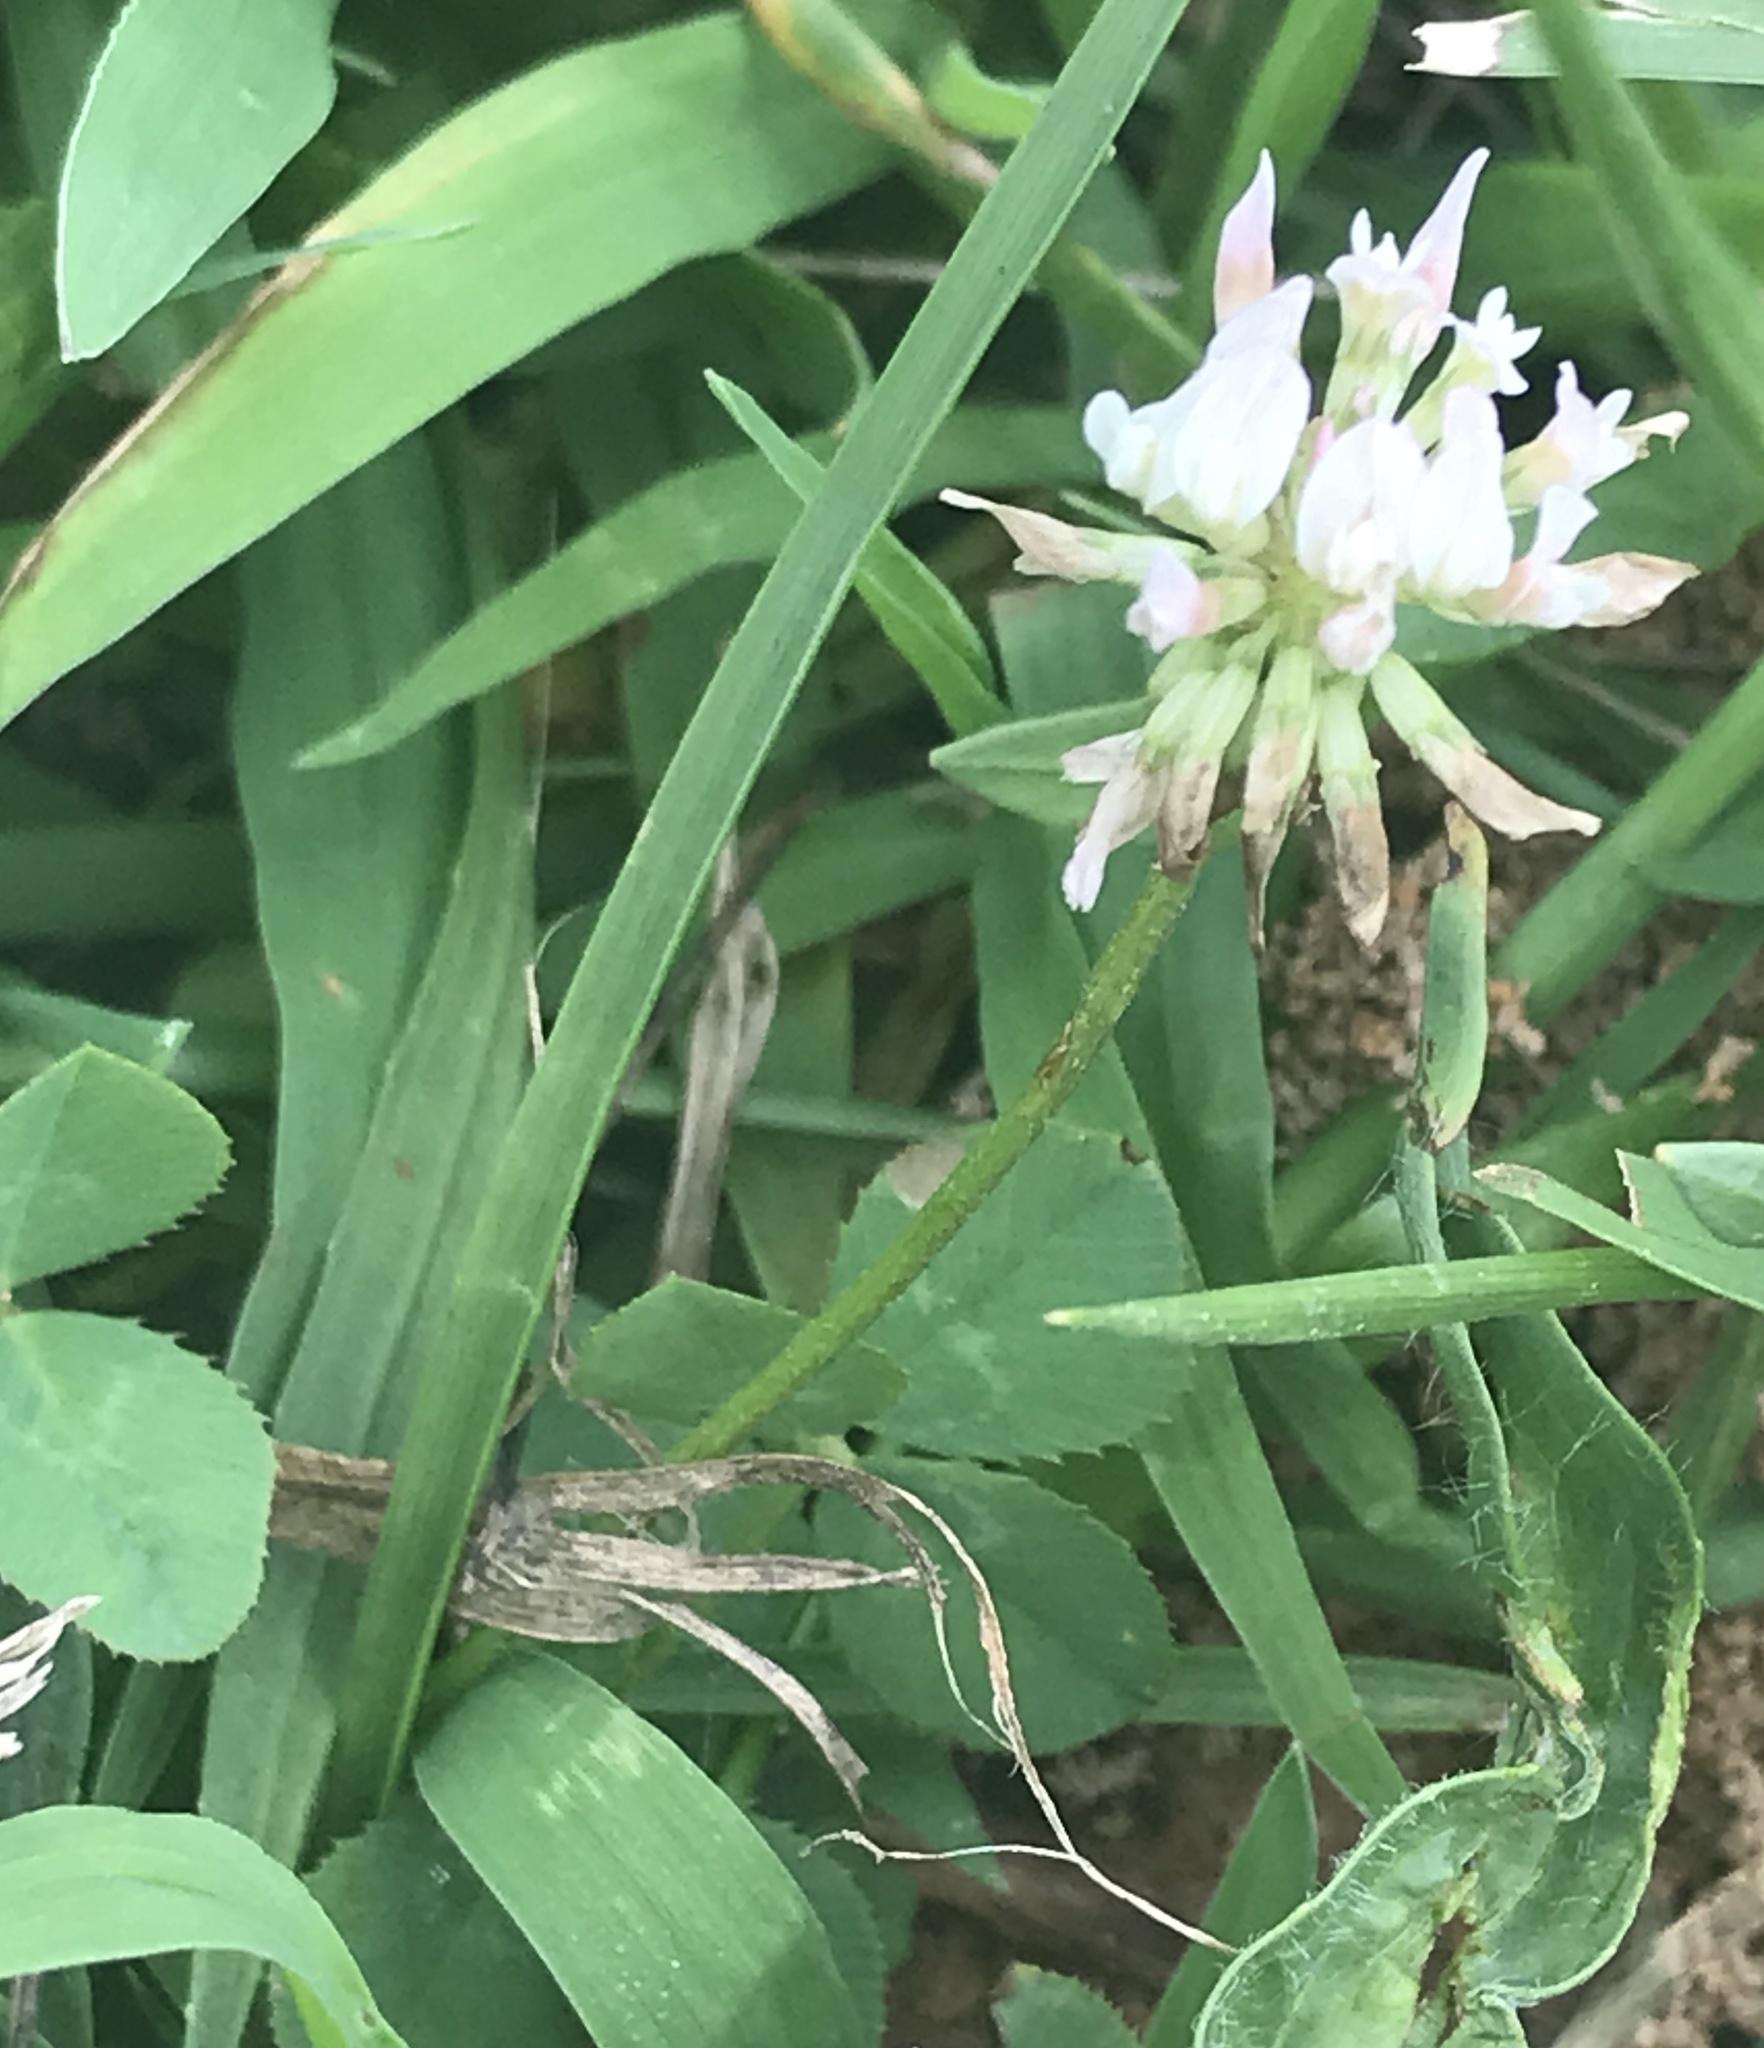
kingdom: Plantae
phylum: Tracheophyta
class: Magnoliopsida
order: Fabales
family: Fabaceae
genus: Trifolium
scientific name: Trifolium repens
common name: White clover
